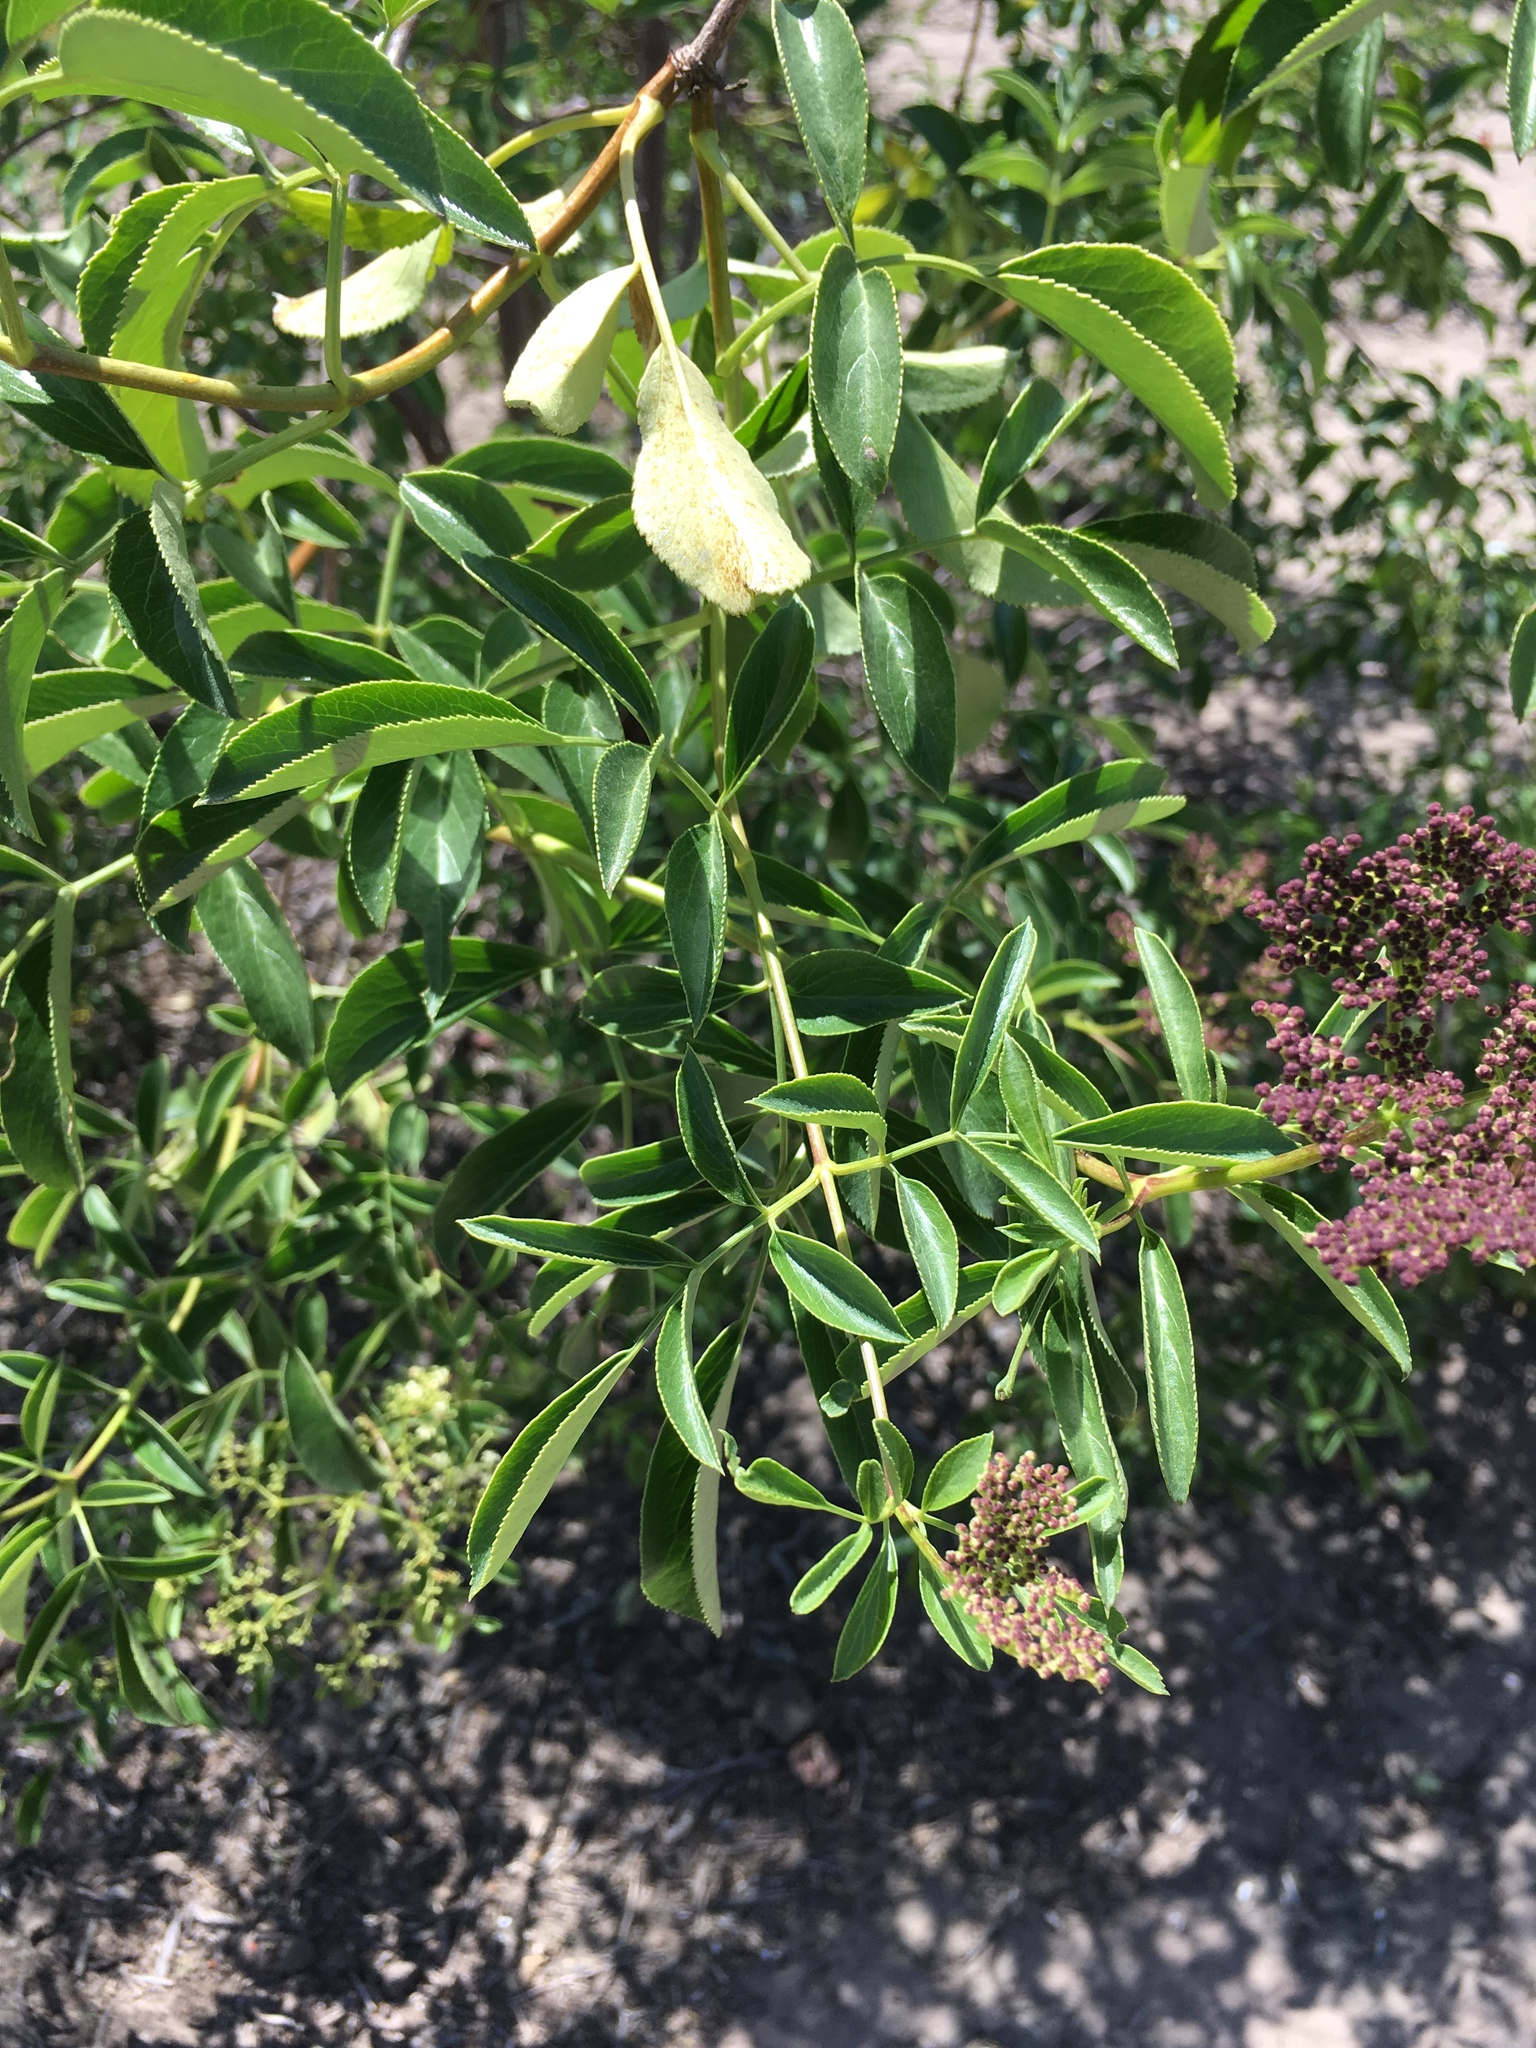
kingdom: Plantae
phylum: Tracheophyta
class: Magnoliopsida
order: Dipsacales
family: Viburnaceae
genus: Sambucus
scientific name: Sambucus cerulea
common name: Blue elder
